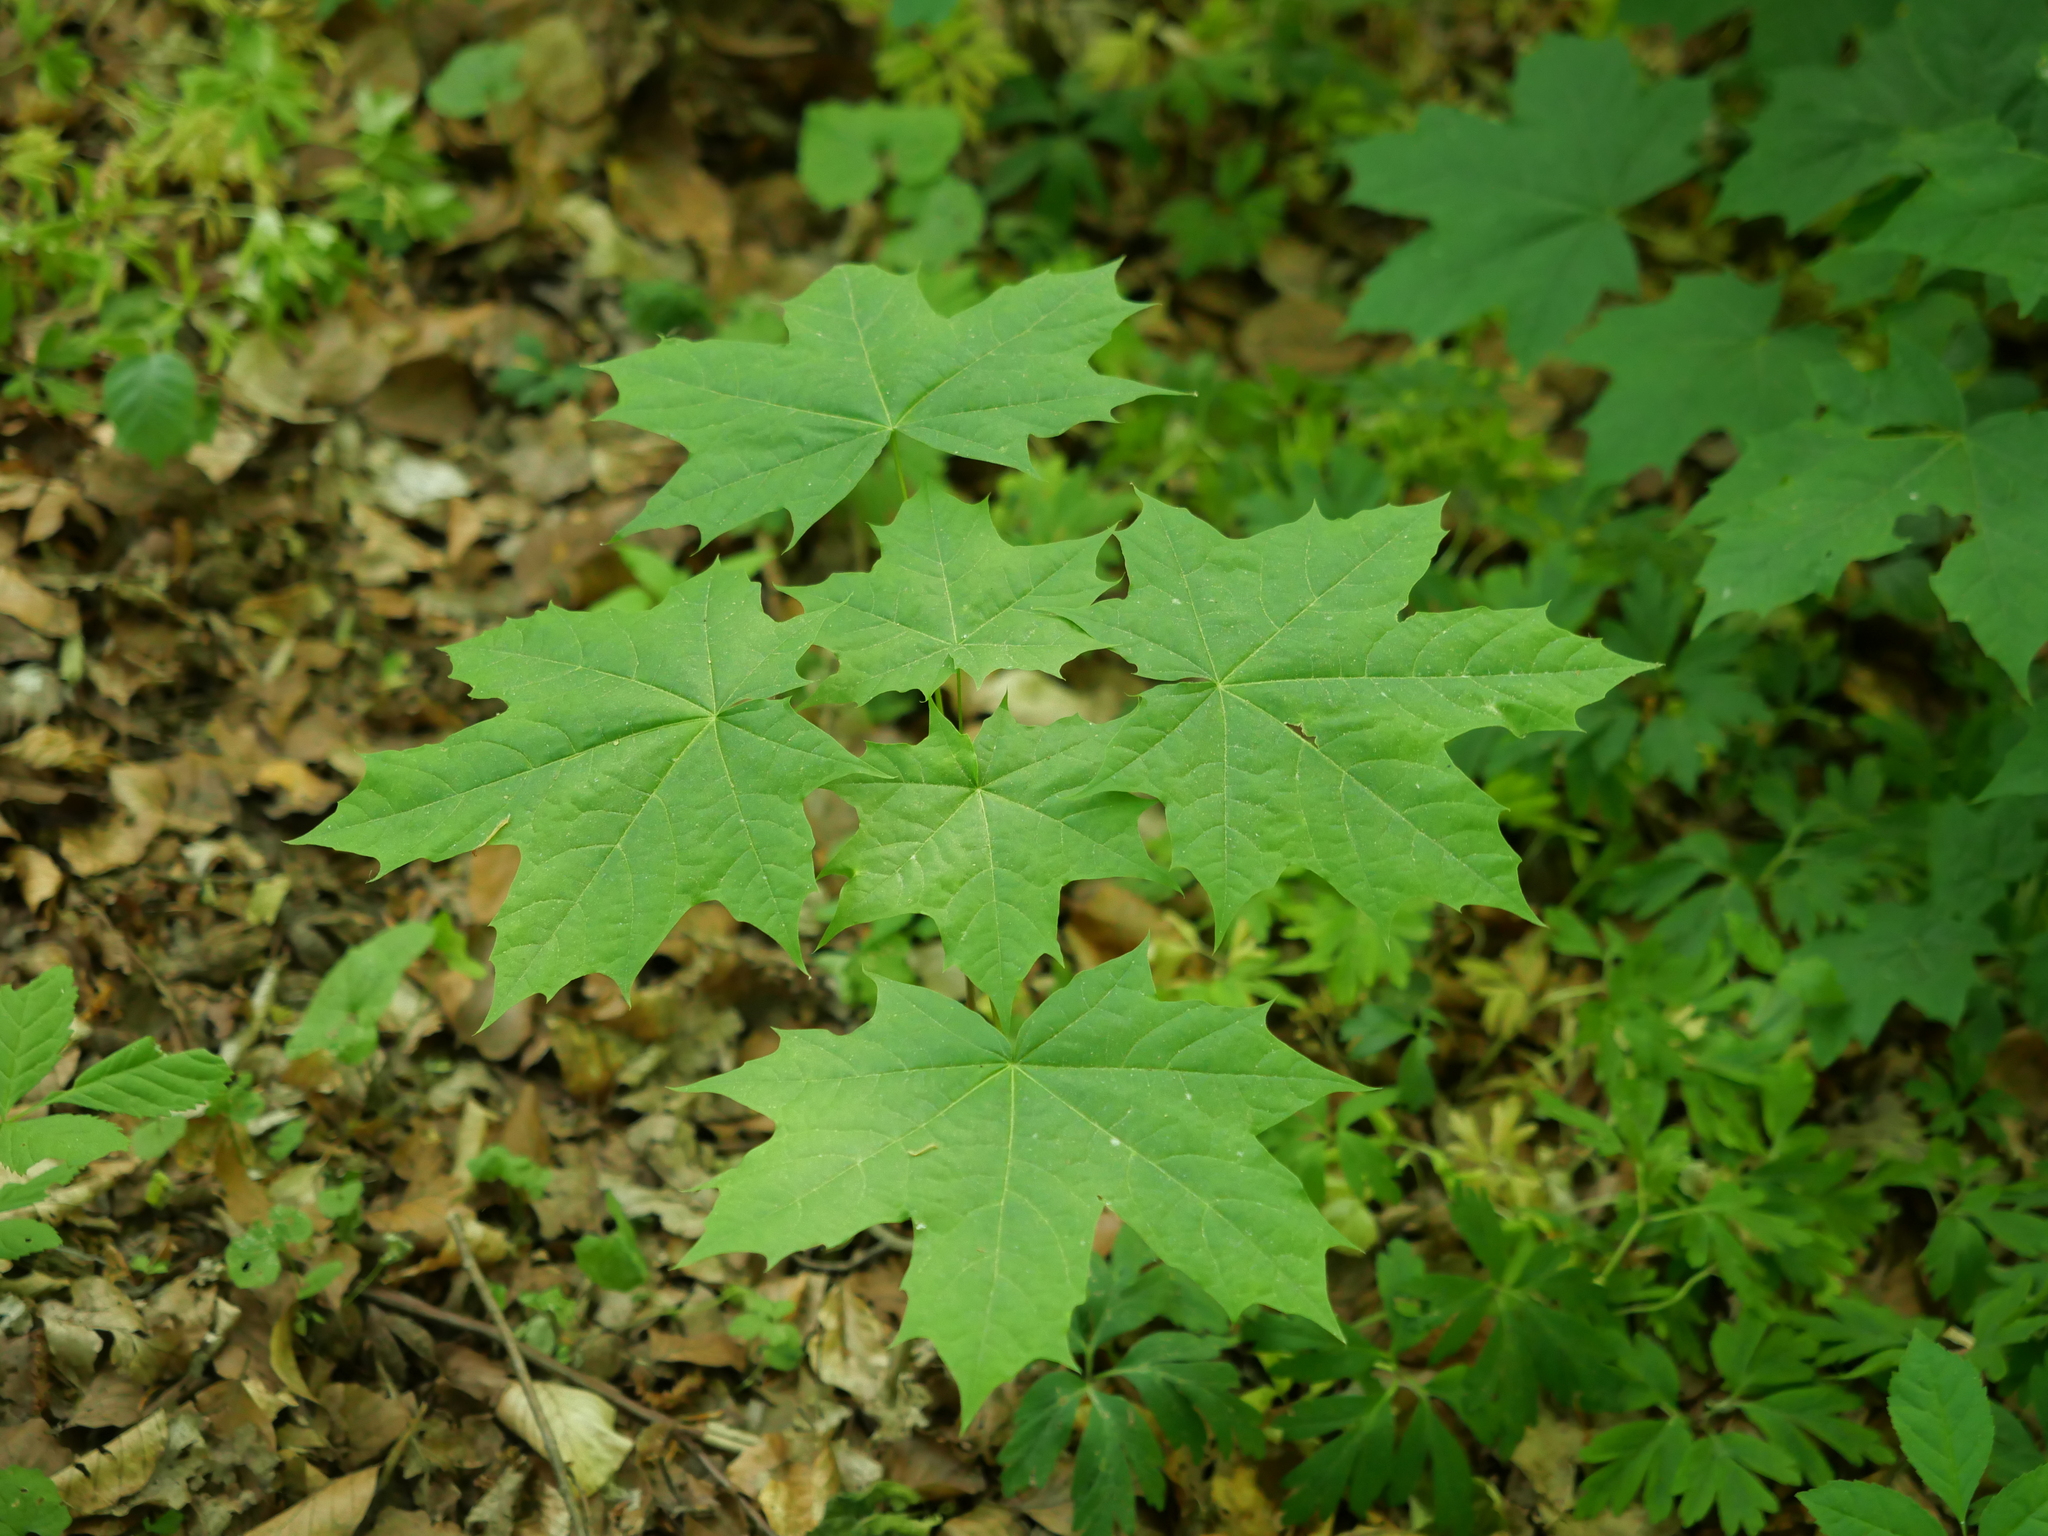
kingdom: Plantae
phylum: Tracheophyta
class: Magnoliopsida
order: Sapindales
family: Sapindaceae
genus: Acer
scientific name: Acer platanoides
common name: Norway maple
